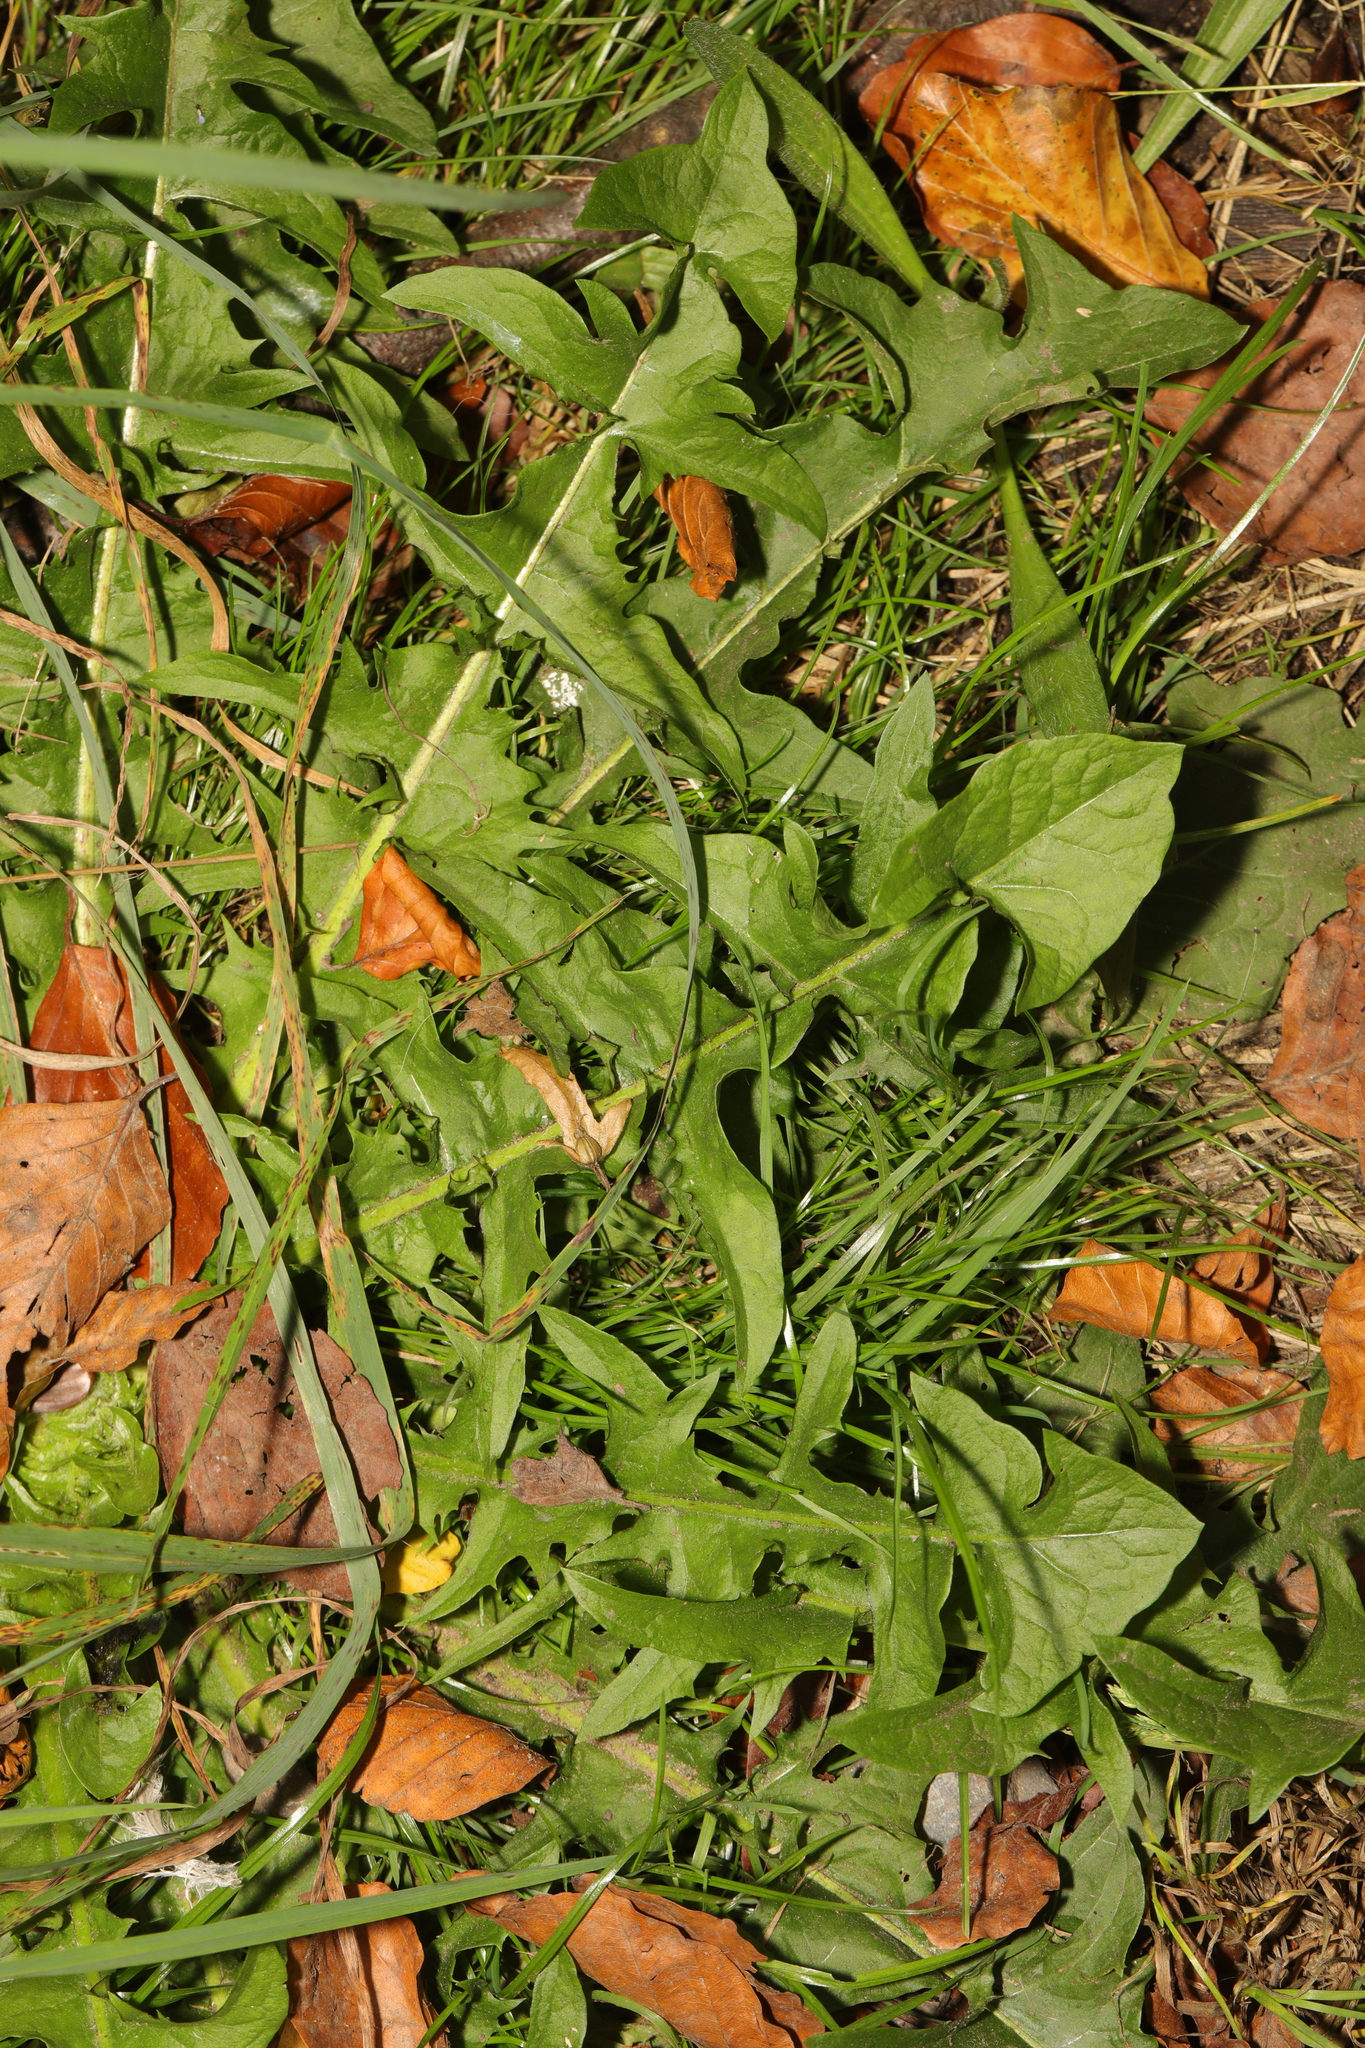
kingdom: Plantae
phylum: Tracheophyta
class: Magnoliopsida
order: Asterales
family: Asteraceae
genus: Taraxacum
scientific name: Taraxacum officinale
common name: Common dandelion
